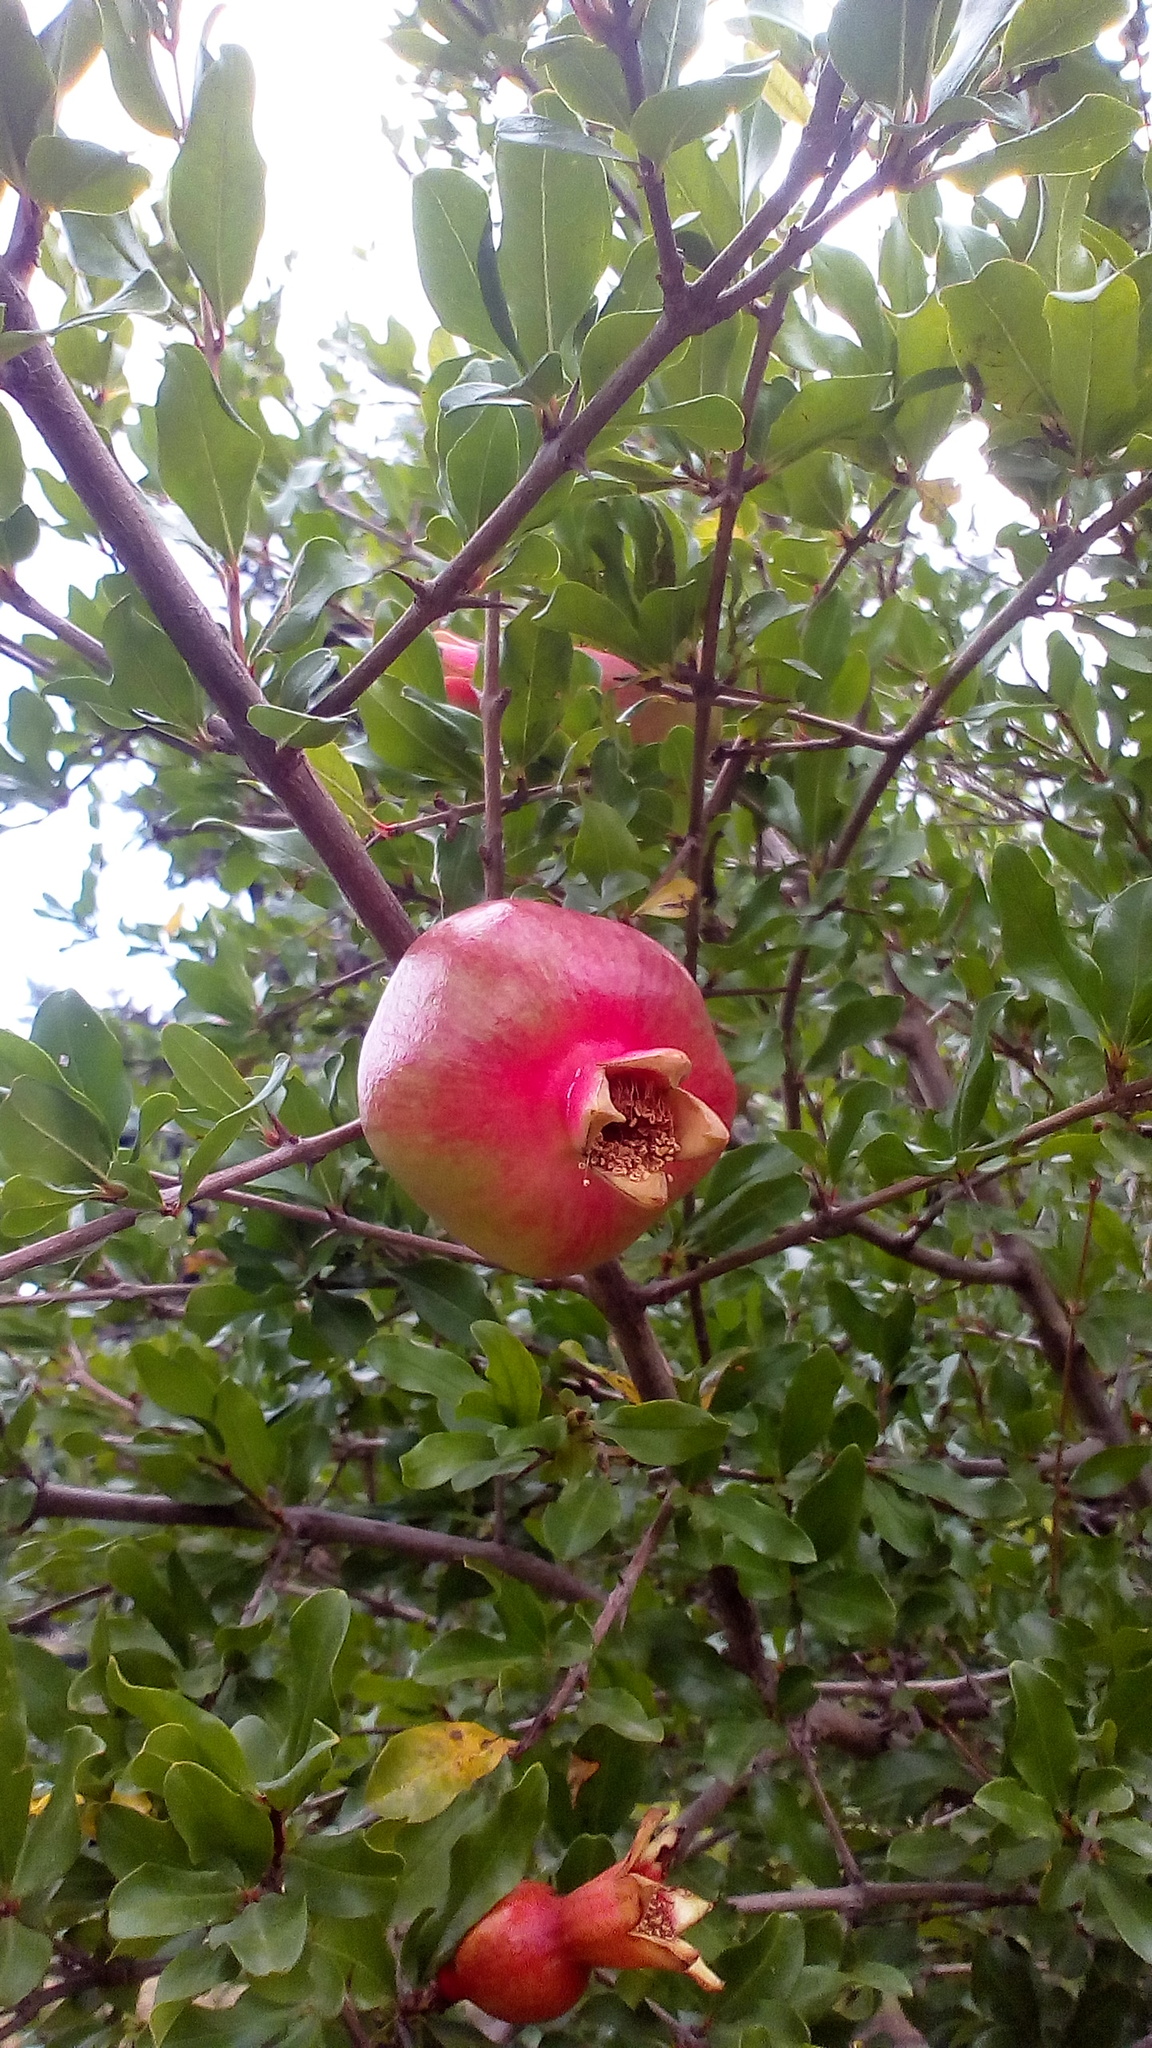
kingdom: Plantae
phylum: Tracheophyta
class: Magnoliopsida
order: Myrtales
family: Lythraceae
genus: Punica
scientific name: Punica granatum
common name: Pomegranate
